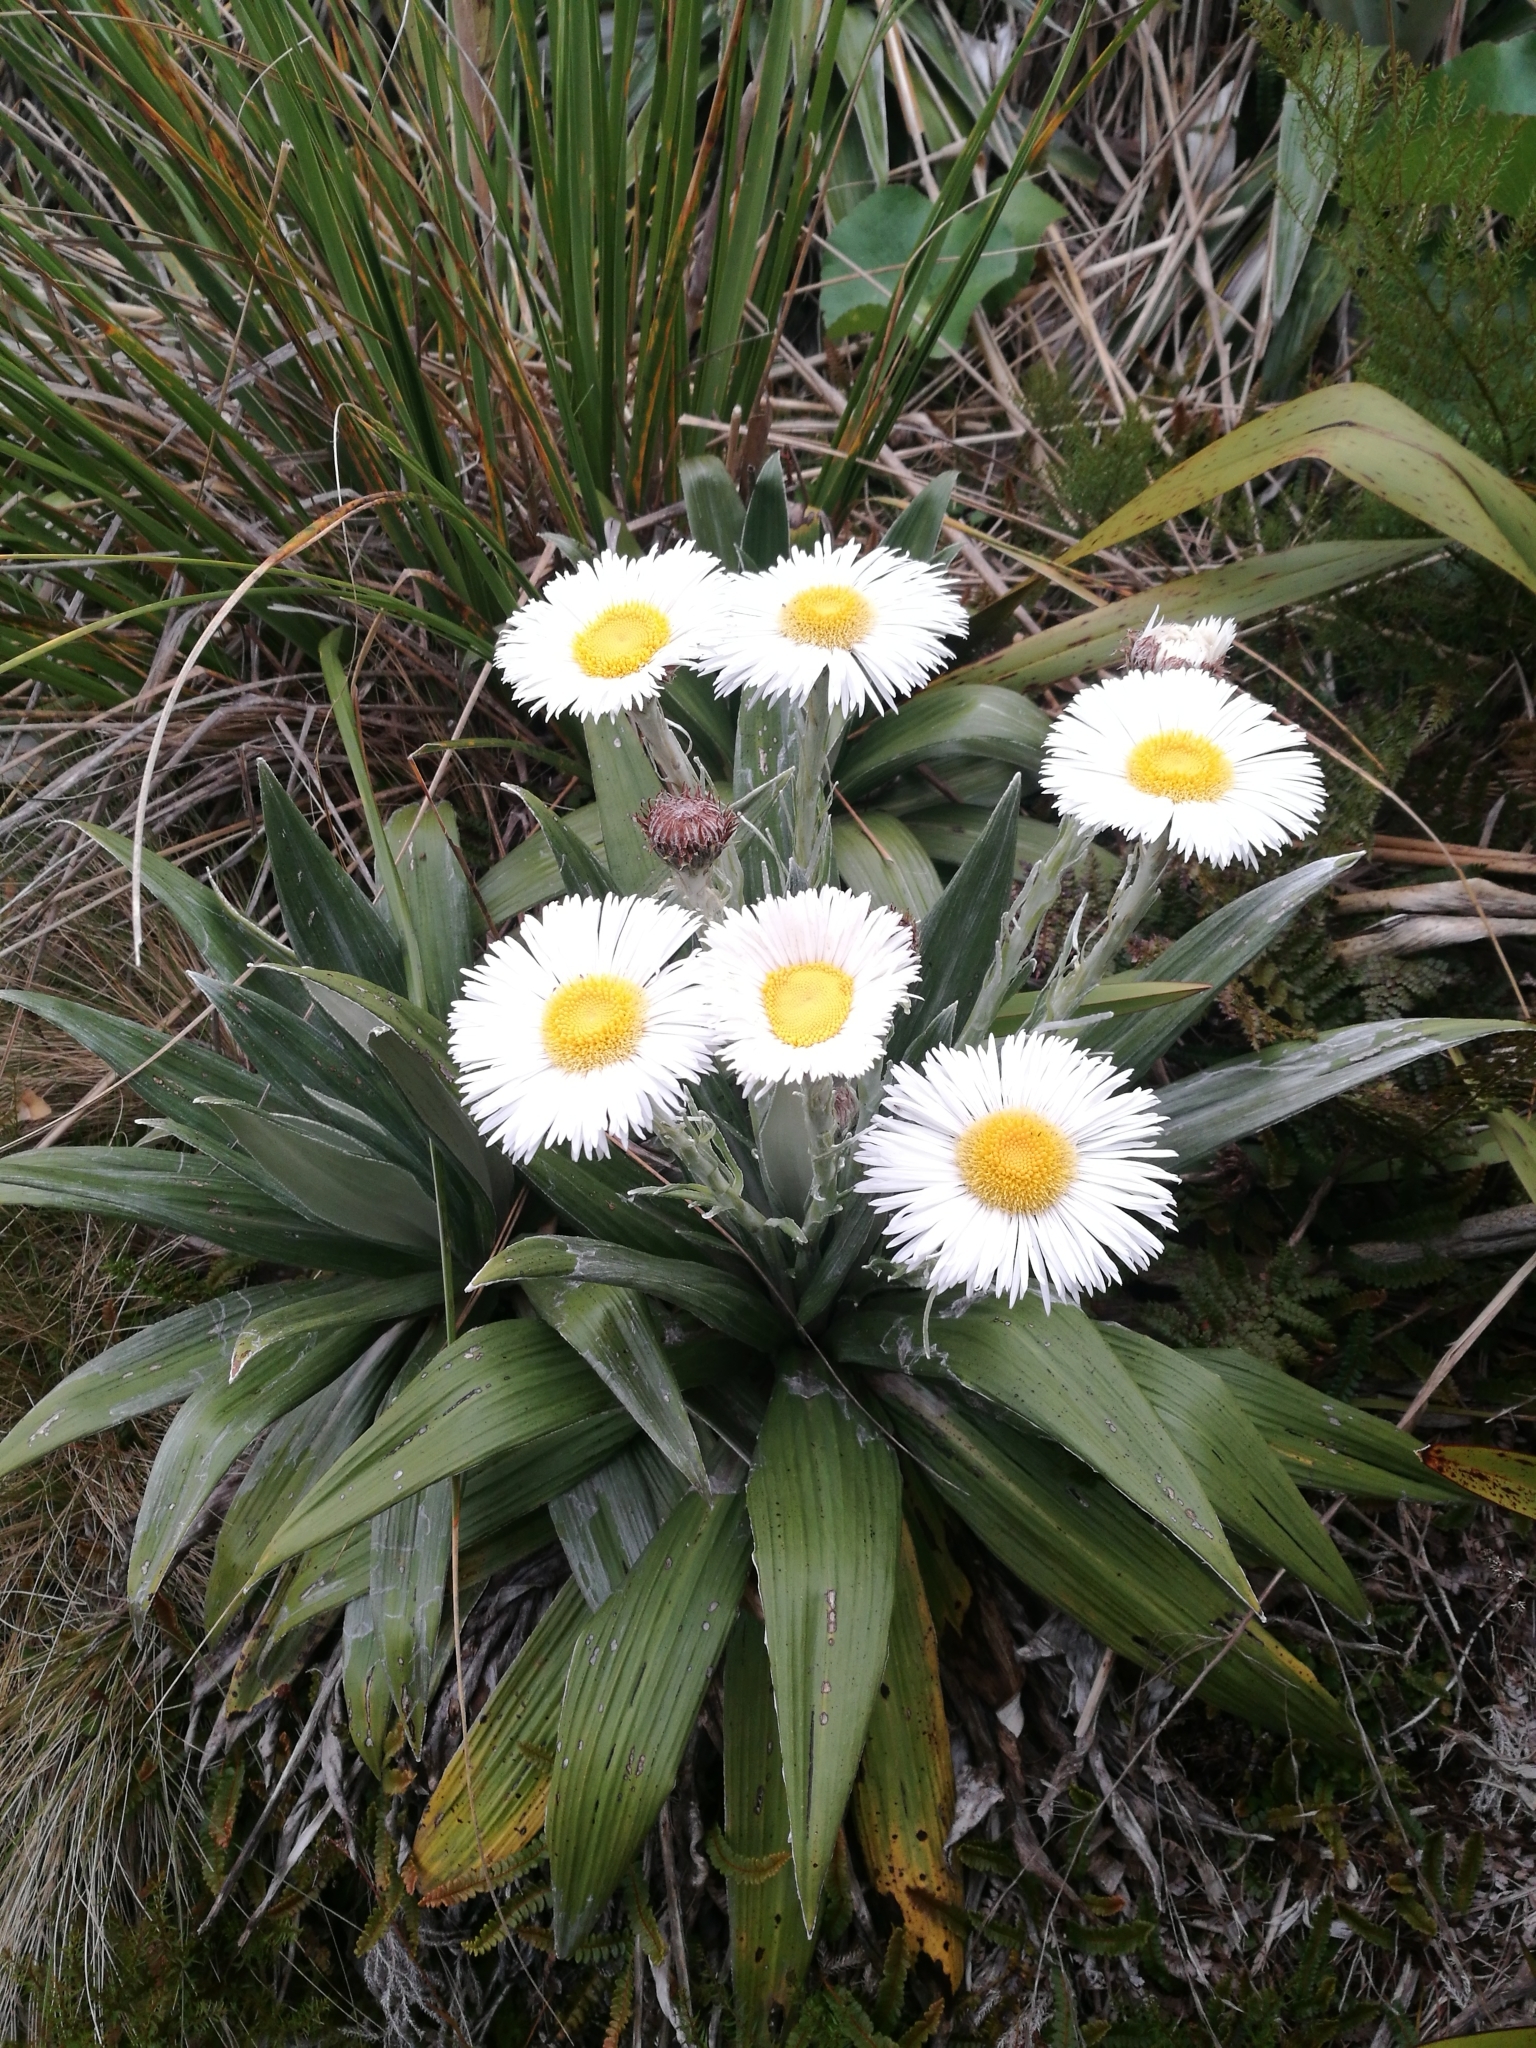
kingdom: Plantae
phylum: Tracheophyta
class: Magnoliopsida
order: Asterales
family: Asteraceae
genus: Celmisia
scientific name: Celmisia semicordata
